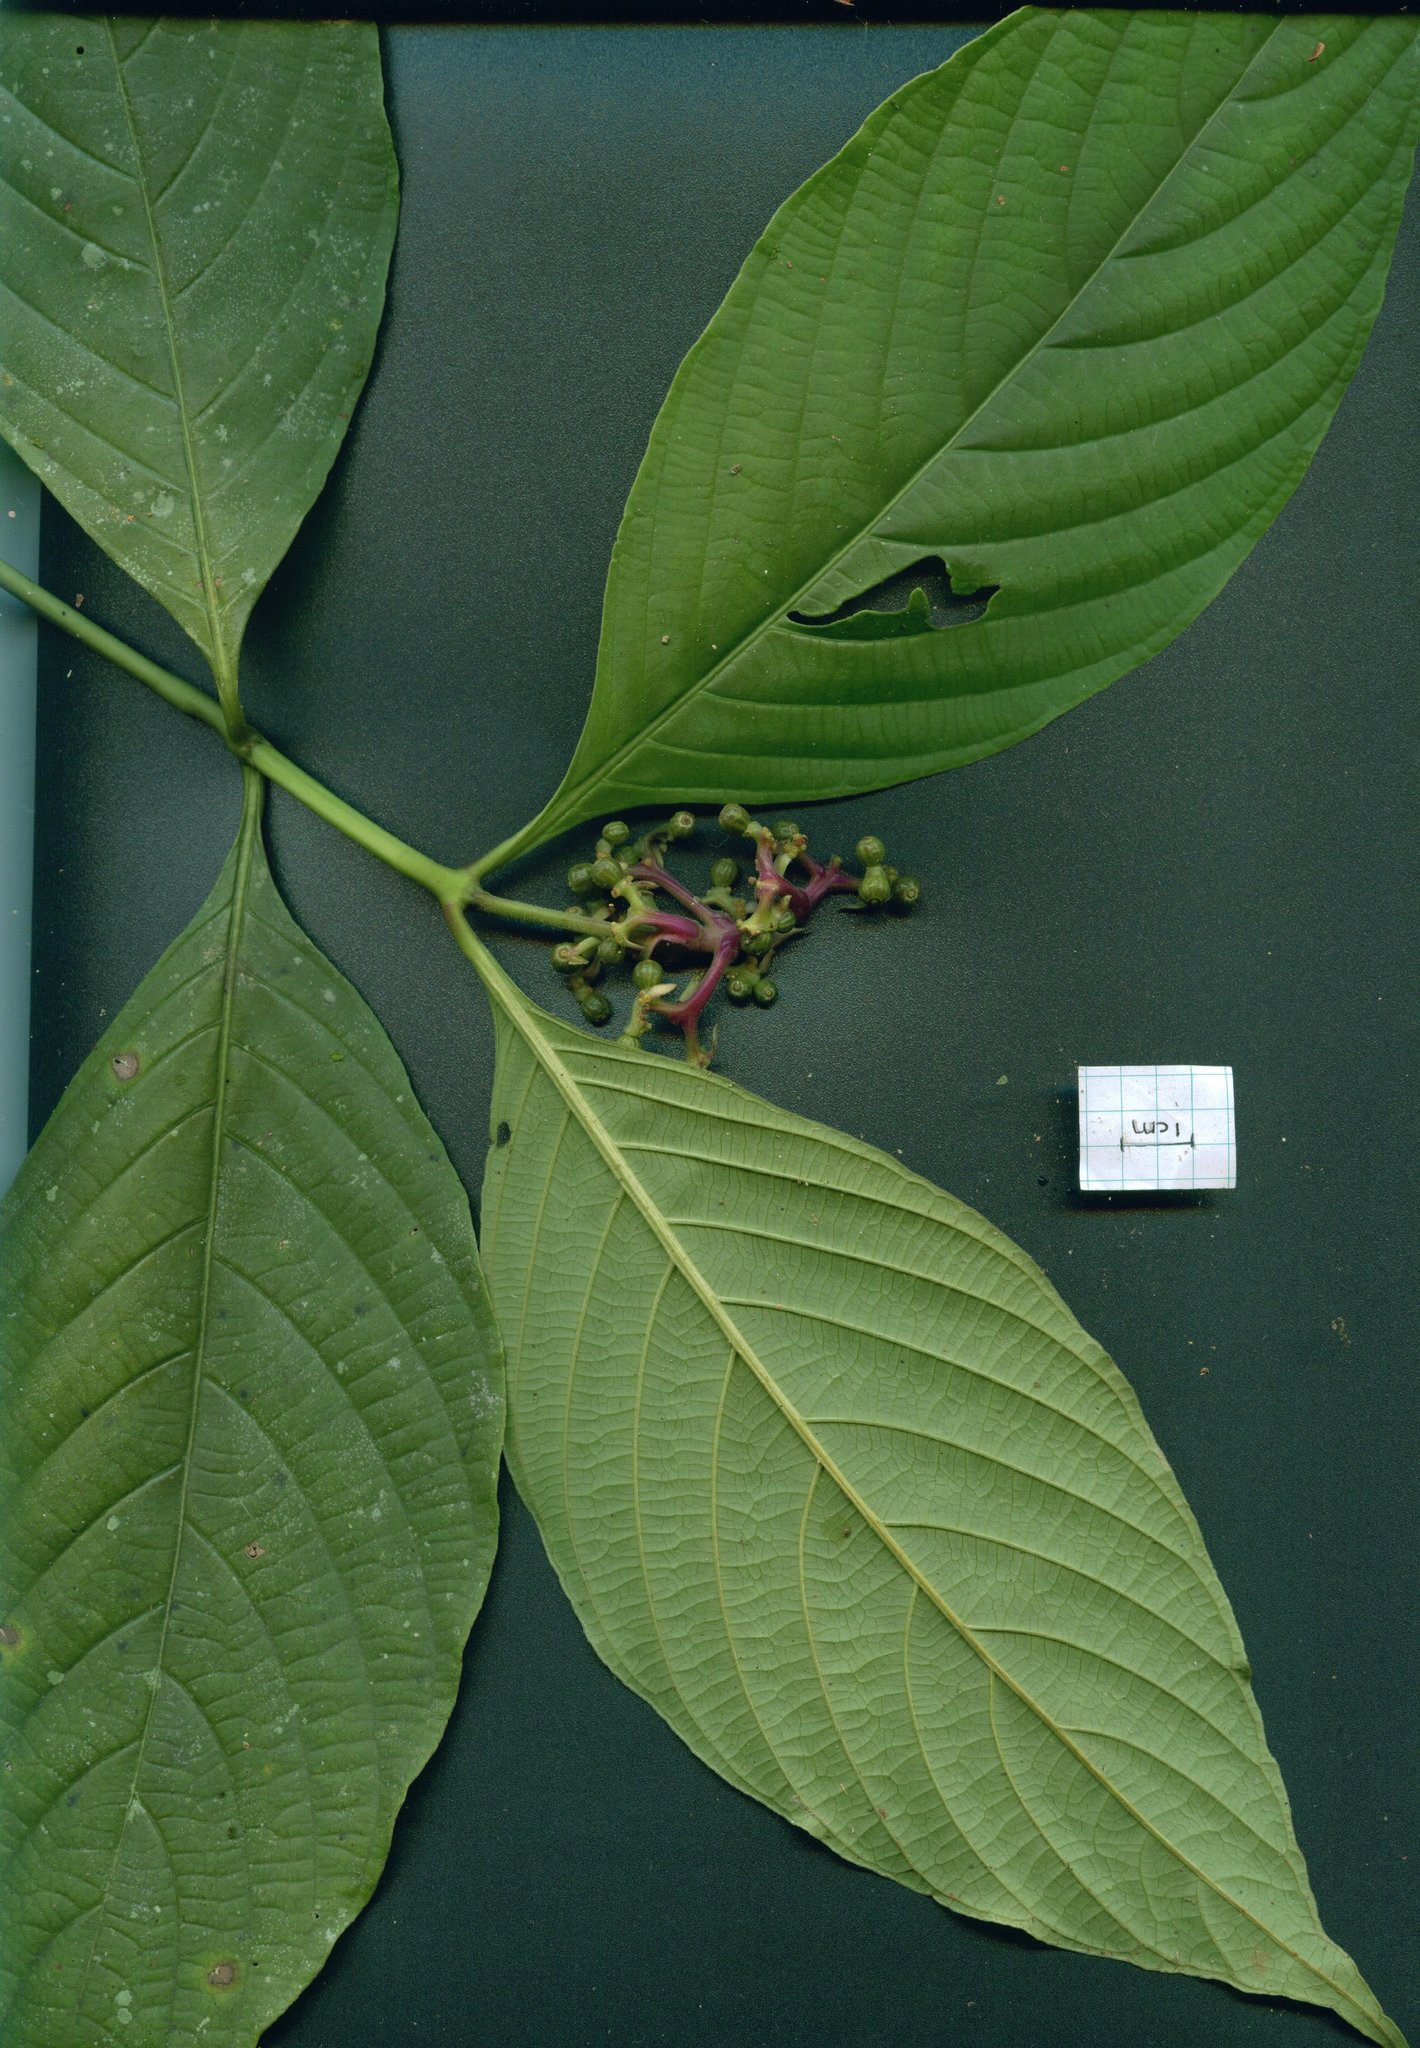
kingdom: Plantae
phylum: Tracheophyta
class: Magnoliopsida
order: Gentianales
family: Rubiaceae
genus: Palicourea
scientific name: Palicourea winkleri
